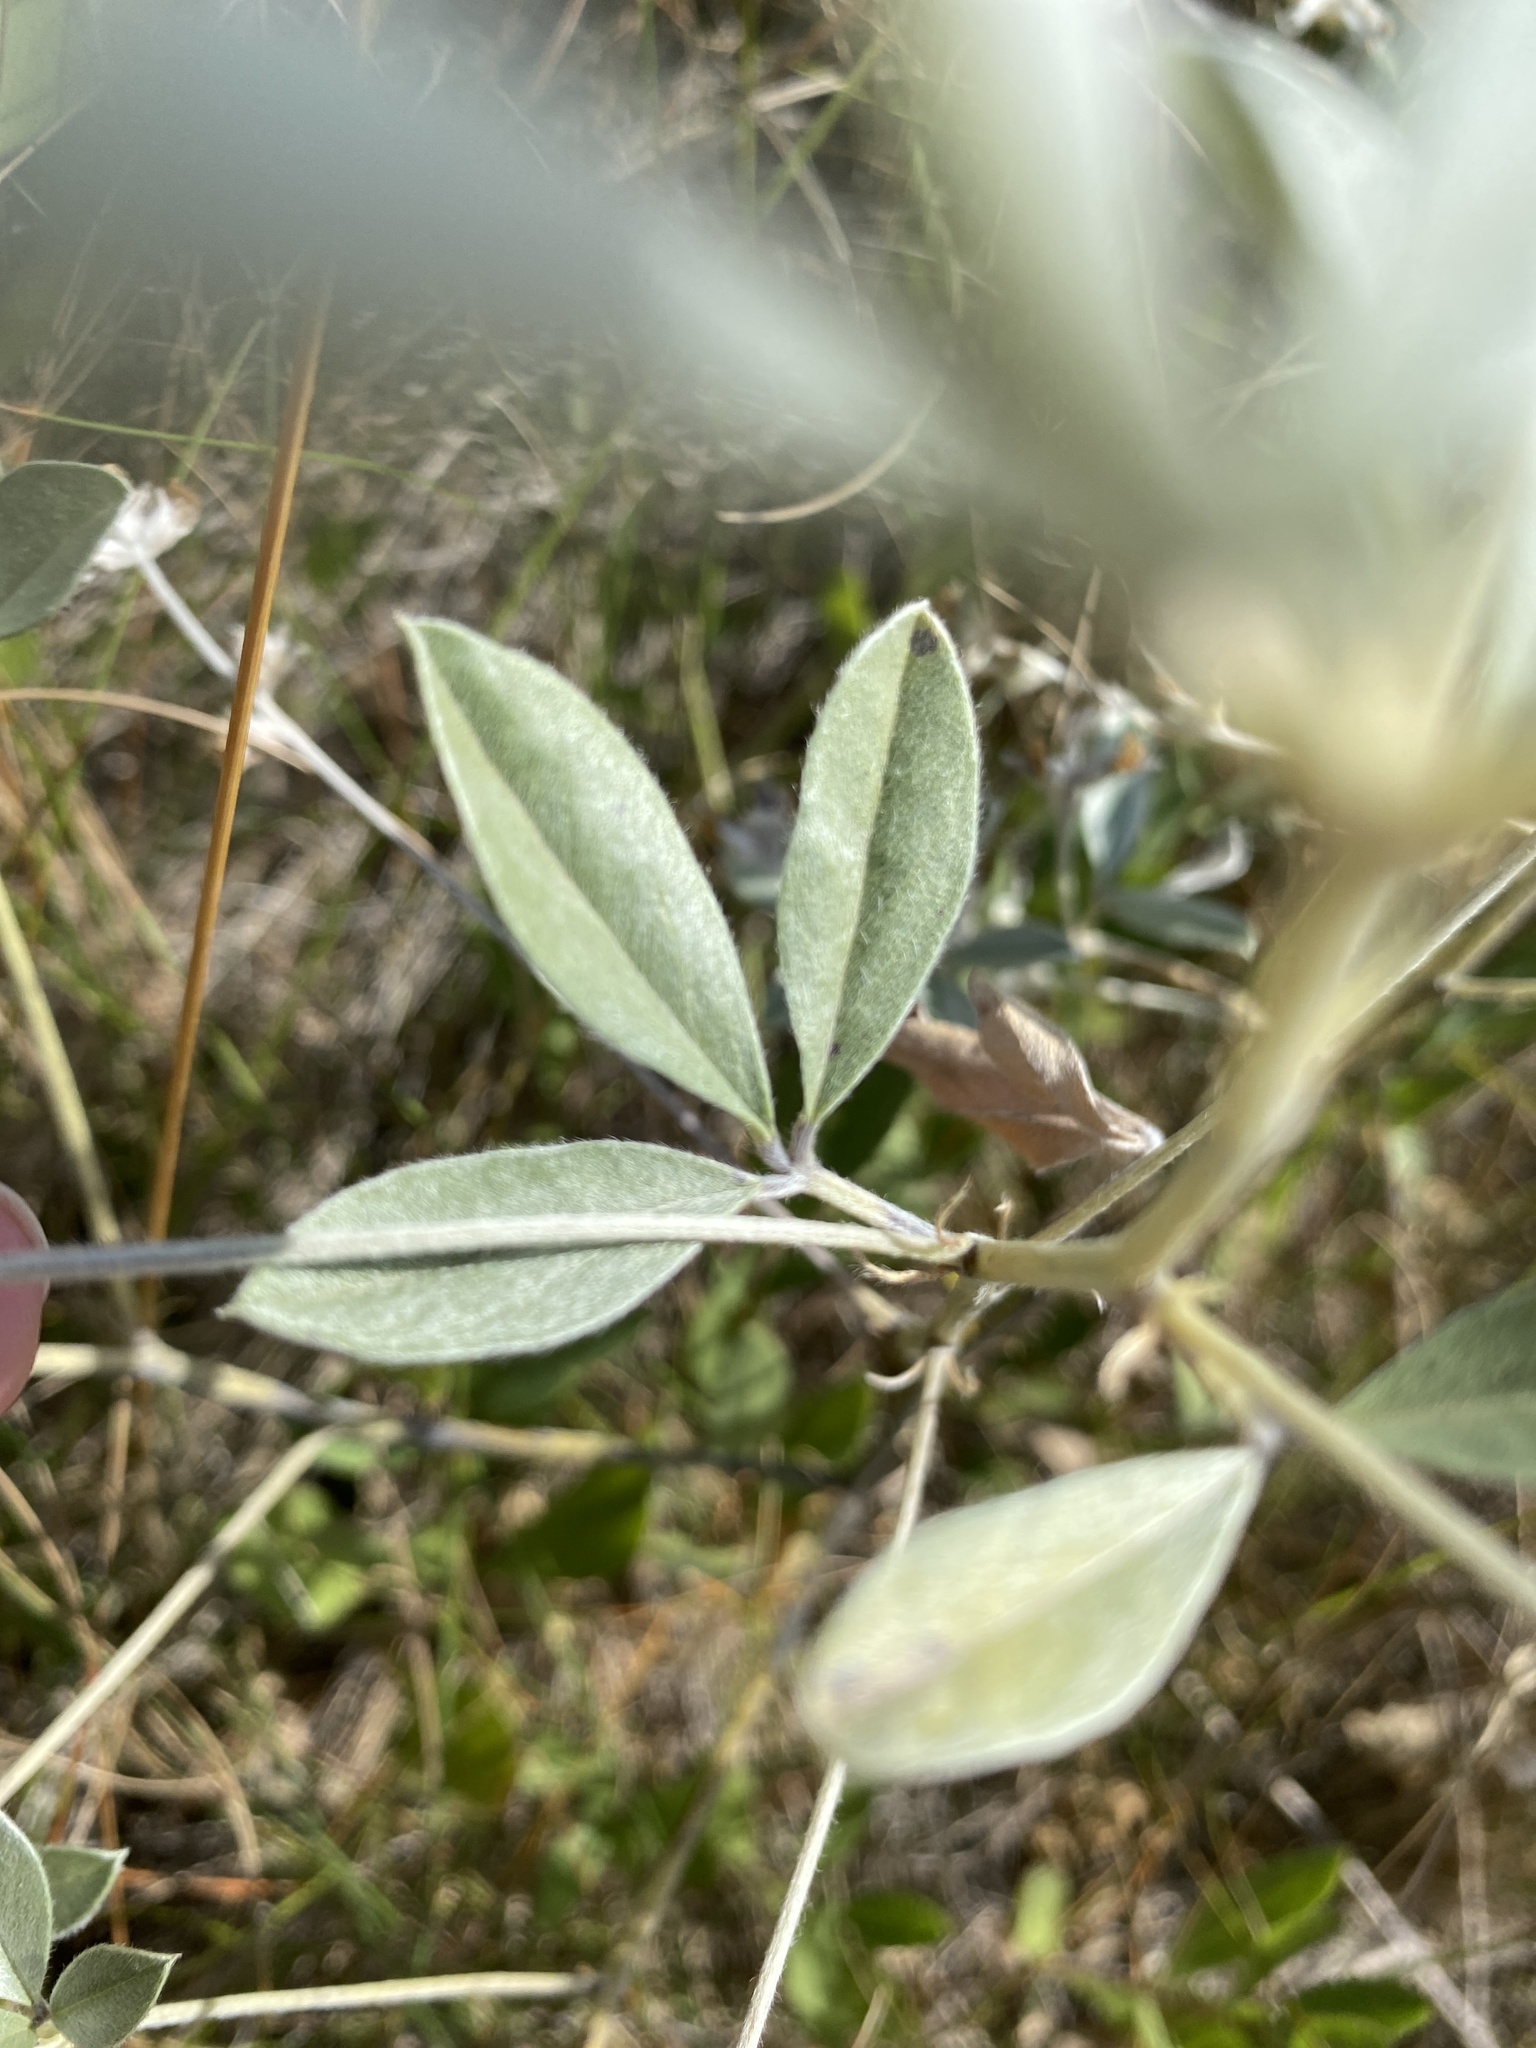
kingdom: Plantae
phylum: Tracheophyta
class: Magnoliopsida
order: Fabales
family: Fabaceae
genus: Pediomelum
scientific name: Pediomelum argophyllum
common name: Silver-leaved indian breadroot
